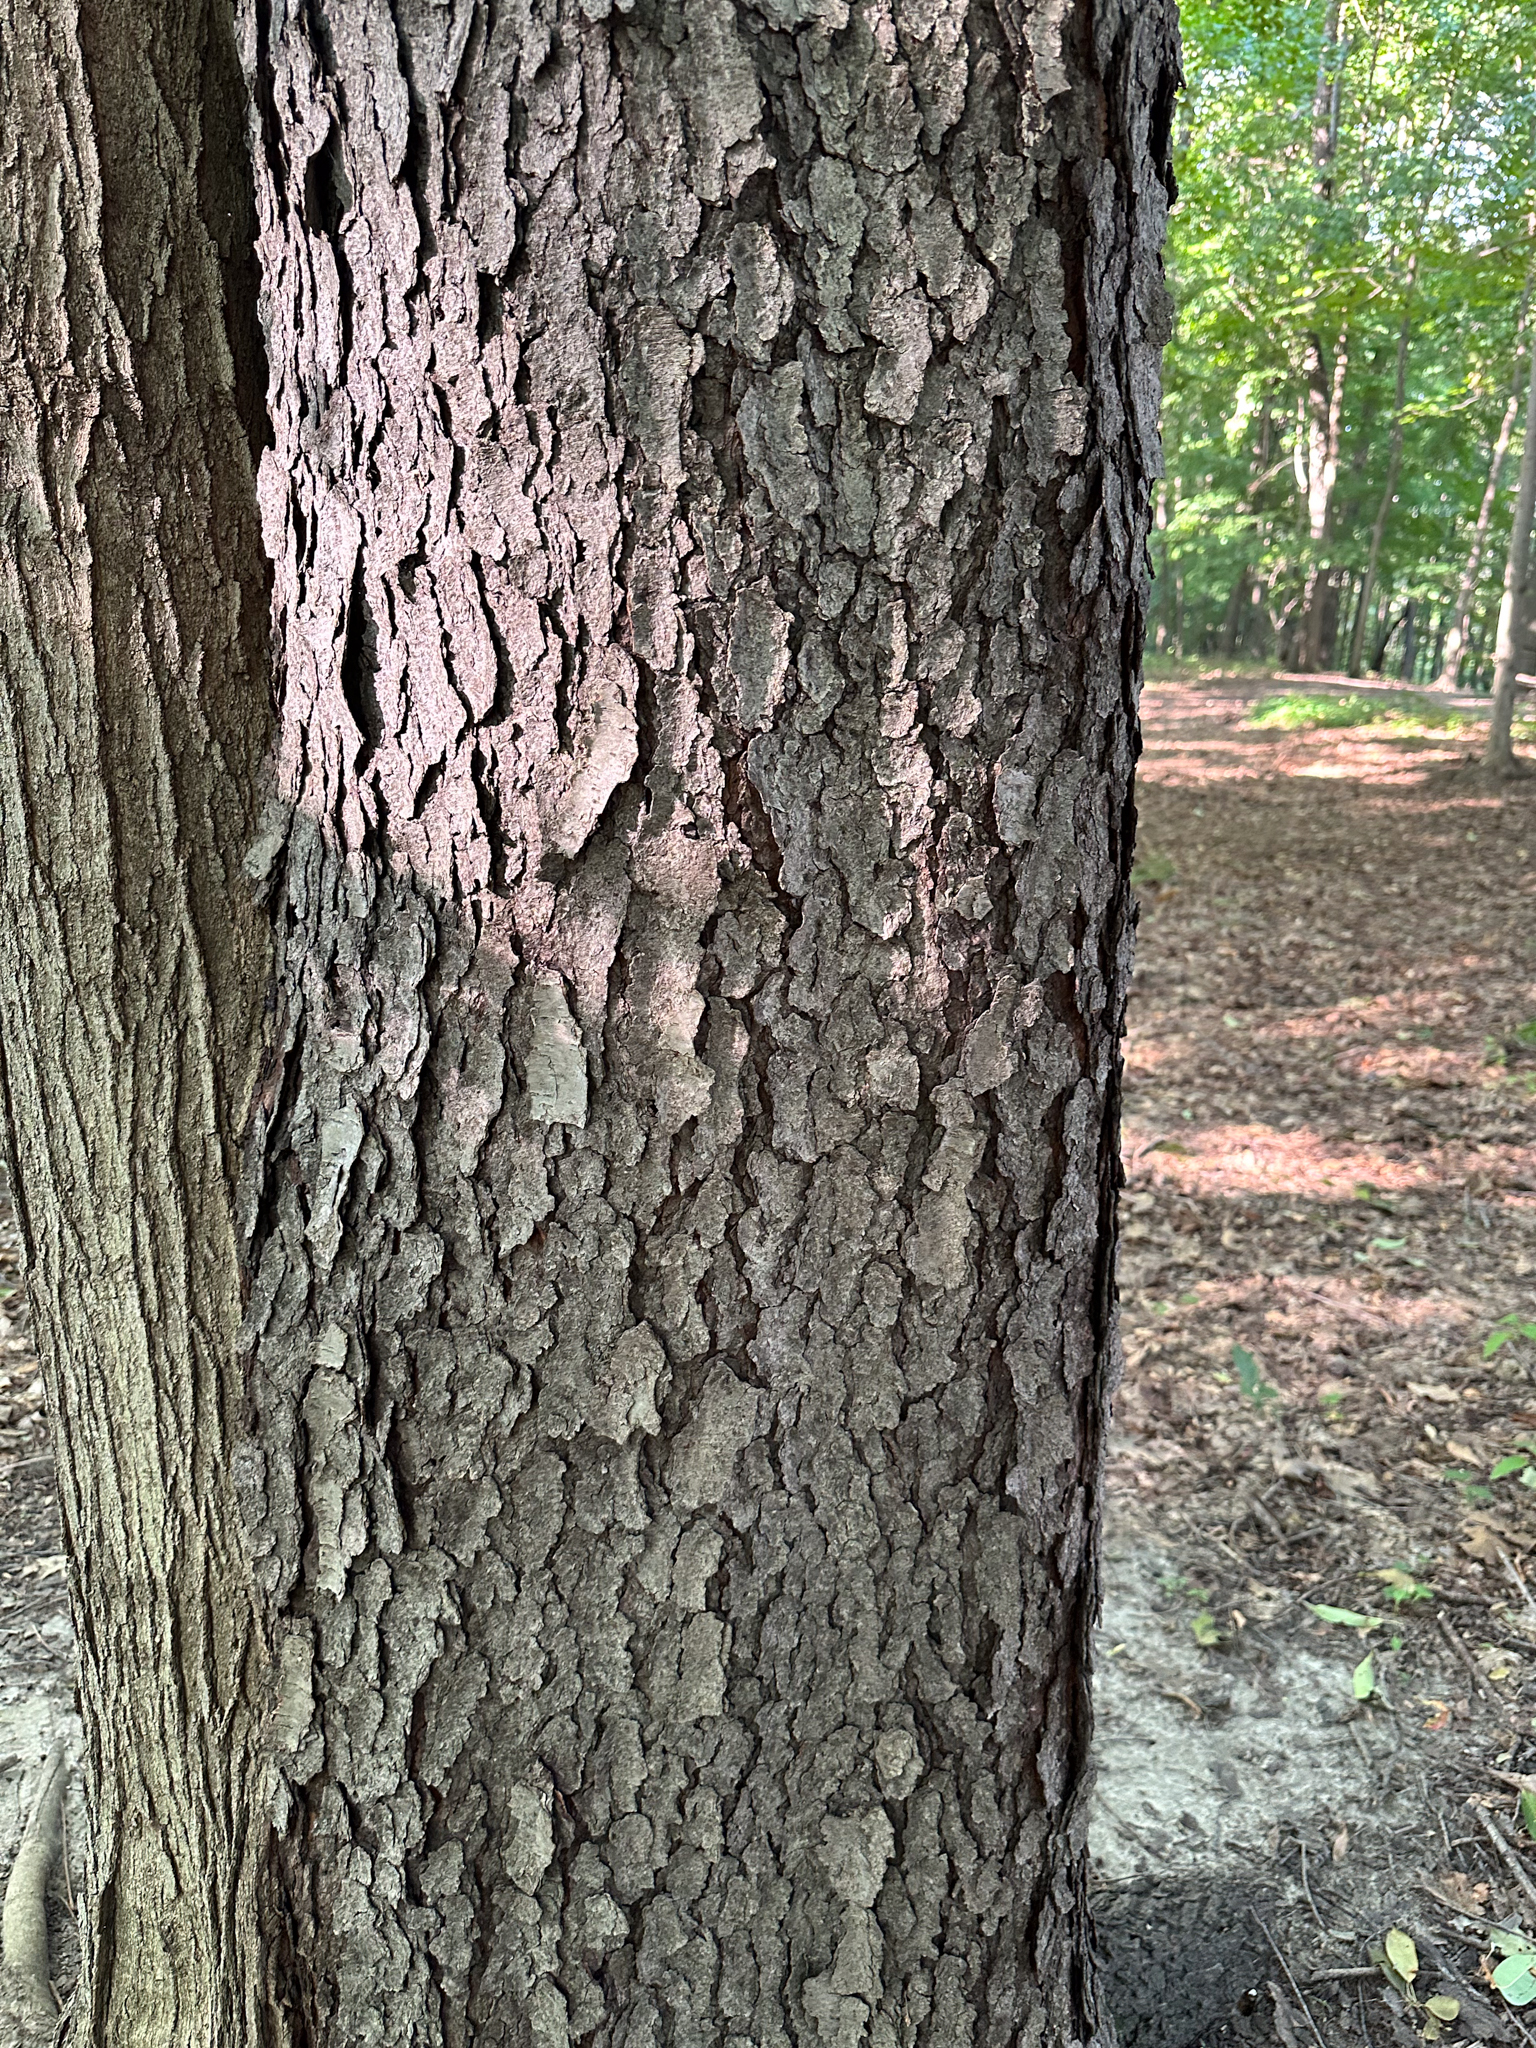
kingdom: Plantae
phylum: Tracheophyta
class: Magnoliopsida
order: Rosales
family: Rosaceae
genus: Prunus
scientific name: Prunus serotina
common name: Black cherry
